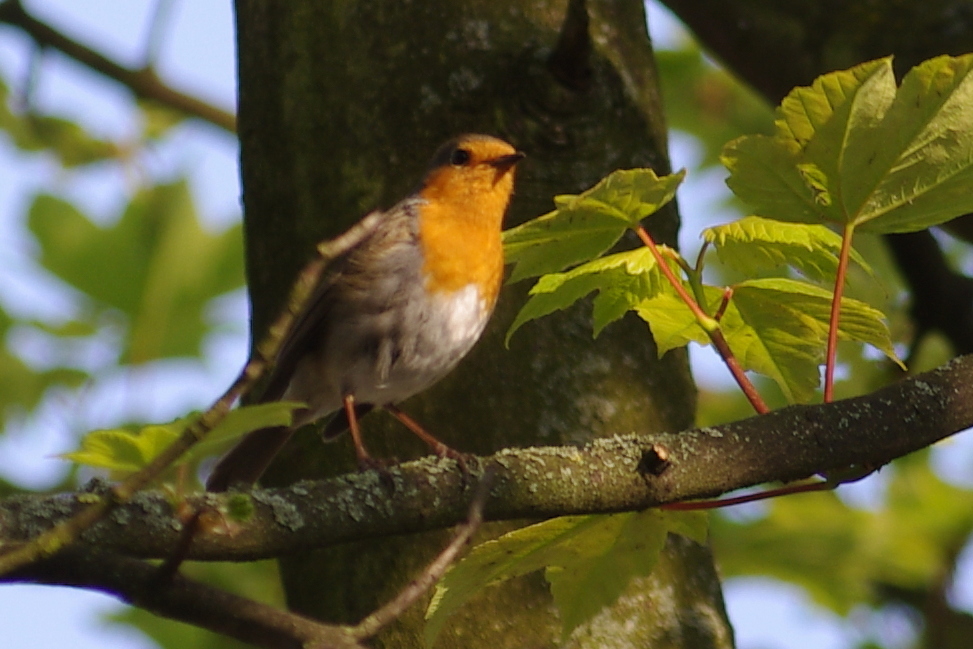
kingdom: Animalia
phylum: Chordata
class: Aves
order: Passeriformes
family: Muscicapidae
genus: Erithacus
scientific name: Erithacus rubecula
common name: European robin
